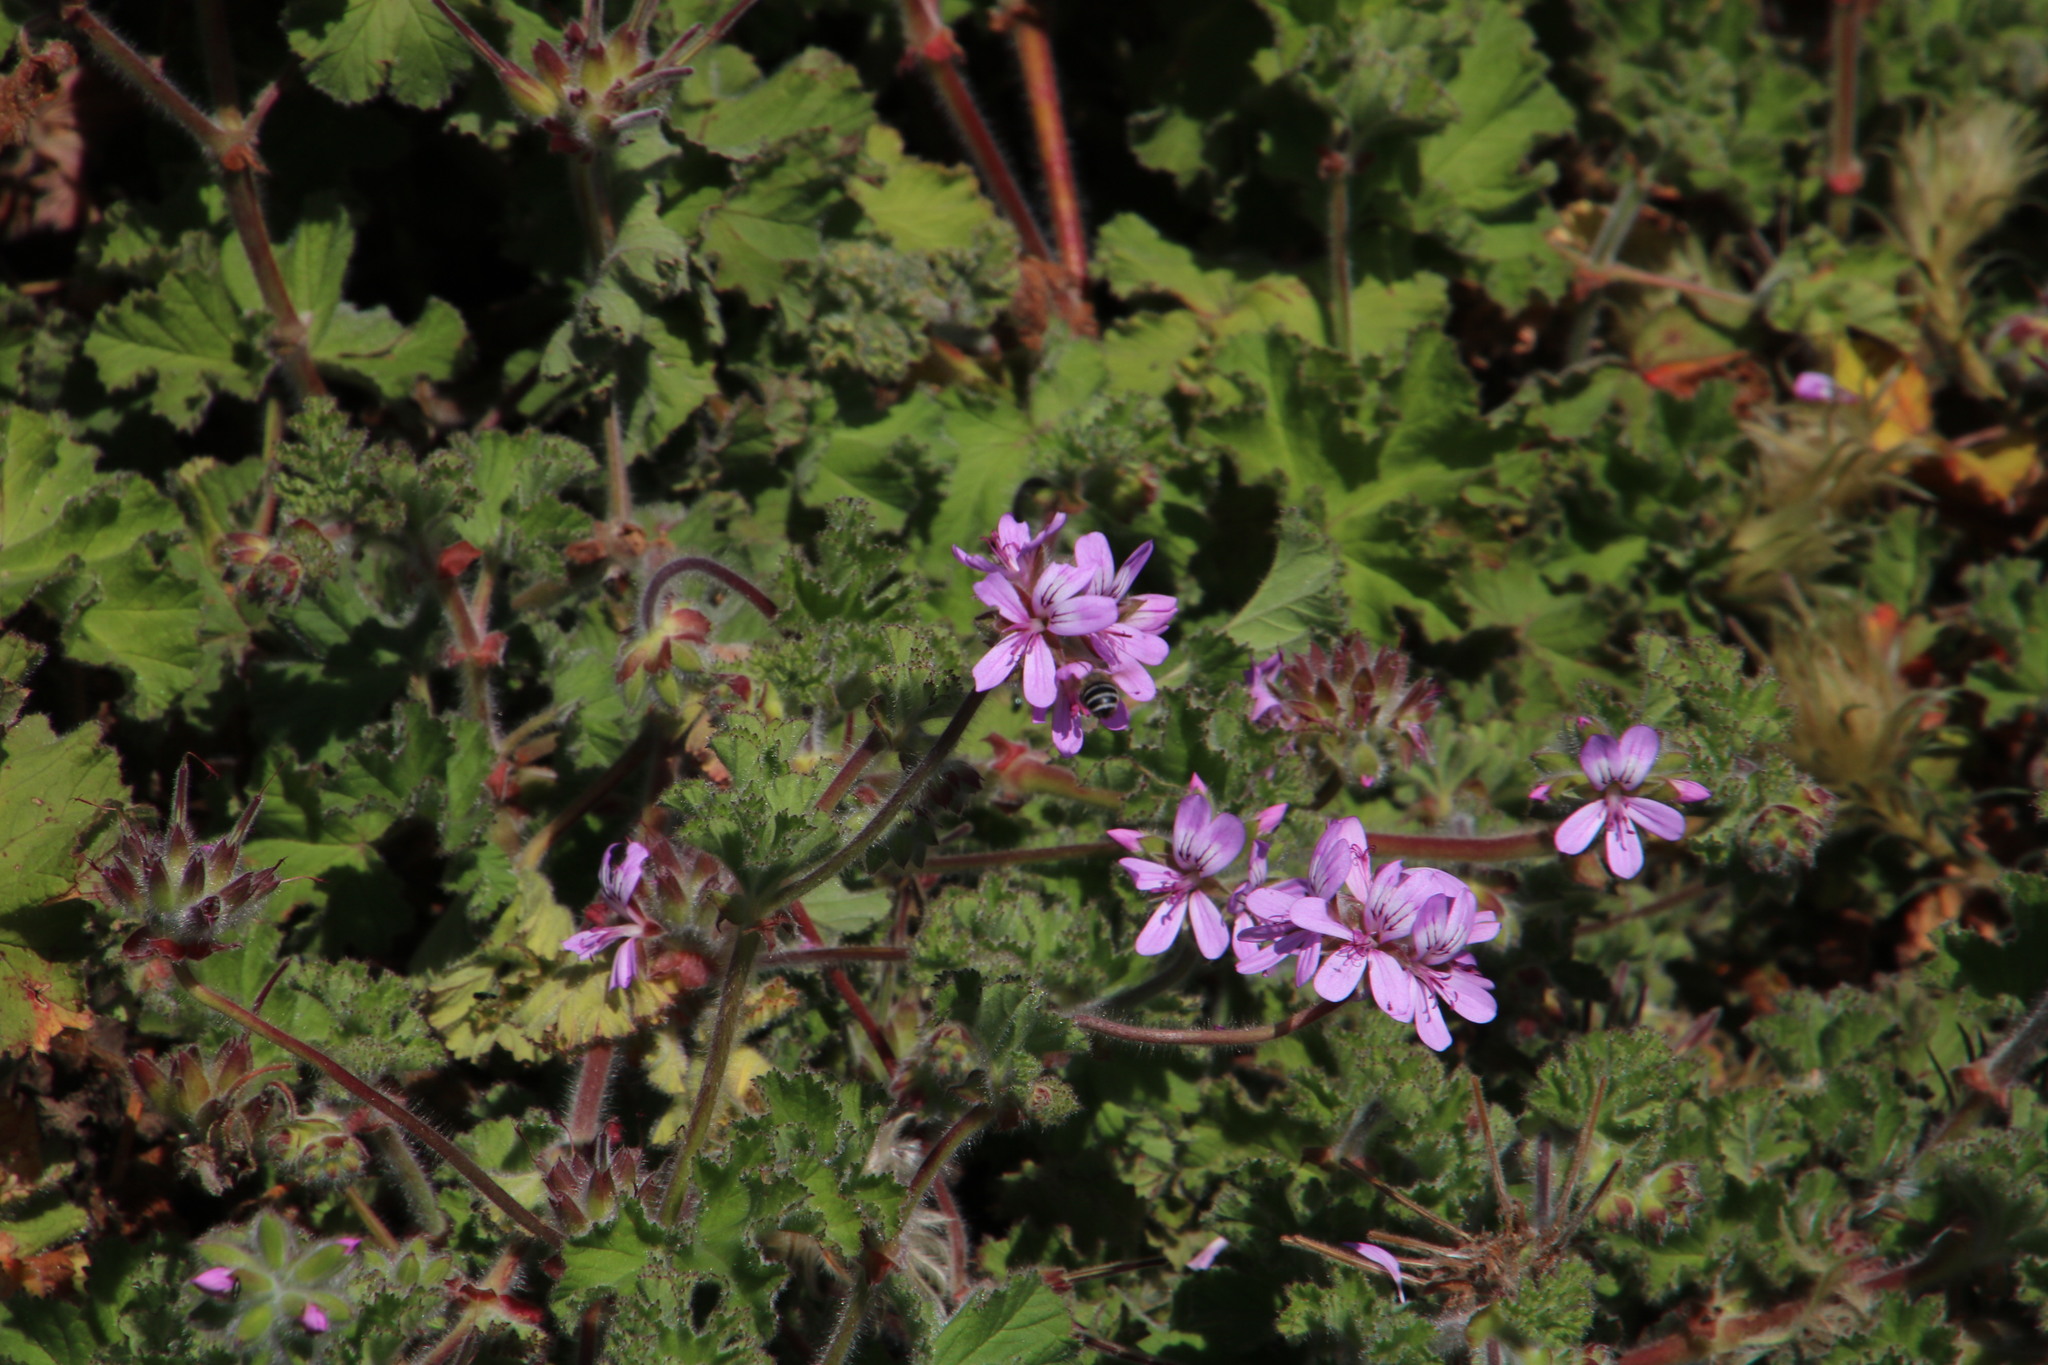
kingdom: Plantae
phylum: Tracheophyta
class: Magnoliopsida
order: Geraniales
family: Geraniaceae
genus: Pelargonium
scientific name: Pelargonium capitatum
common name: Rose scented geranium
